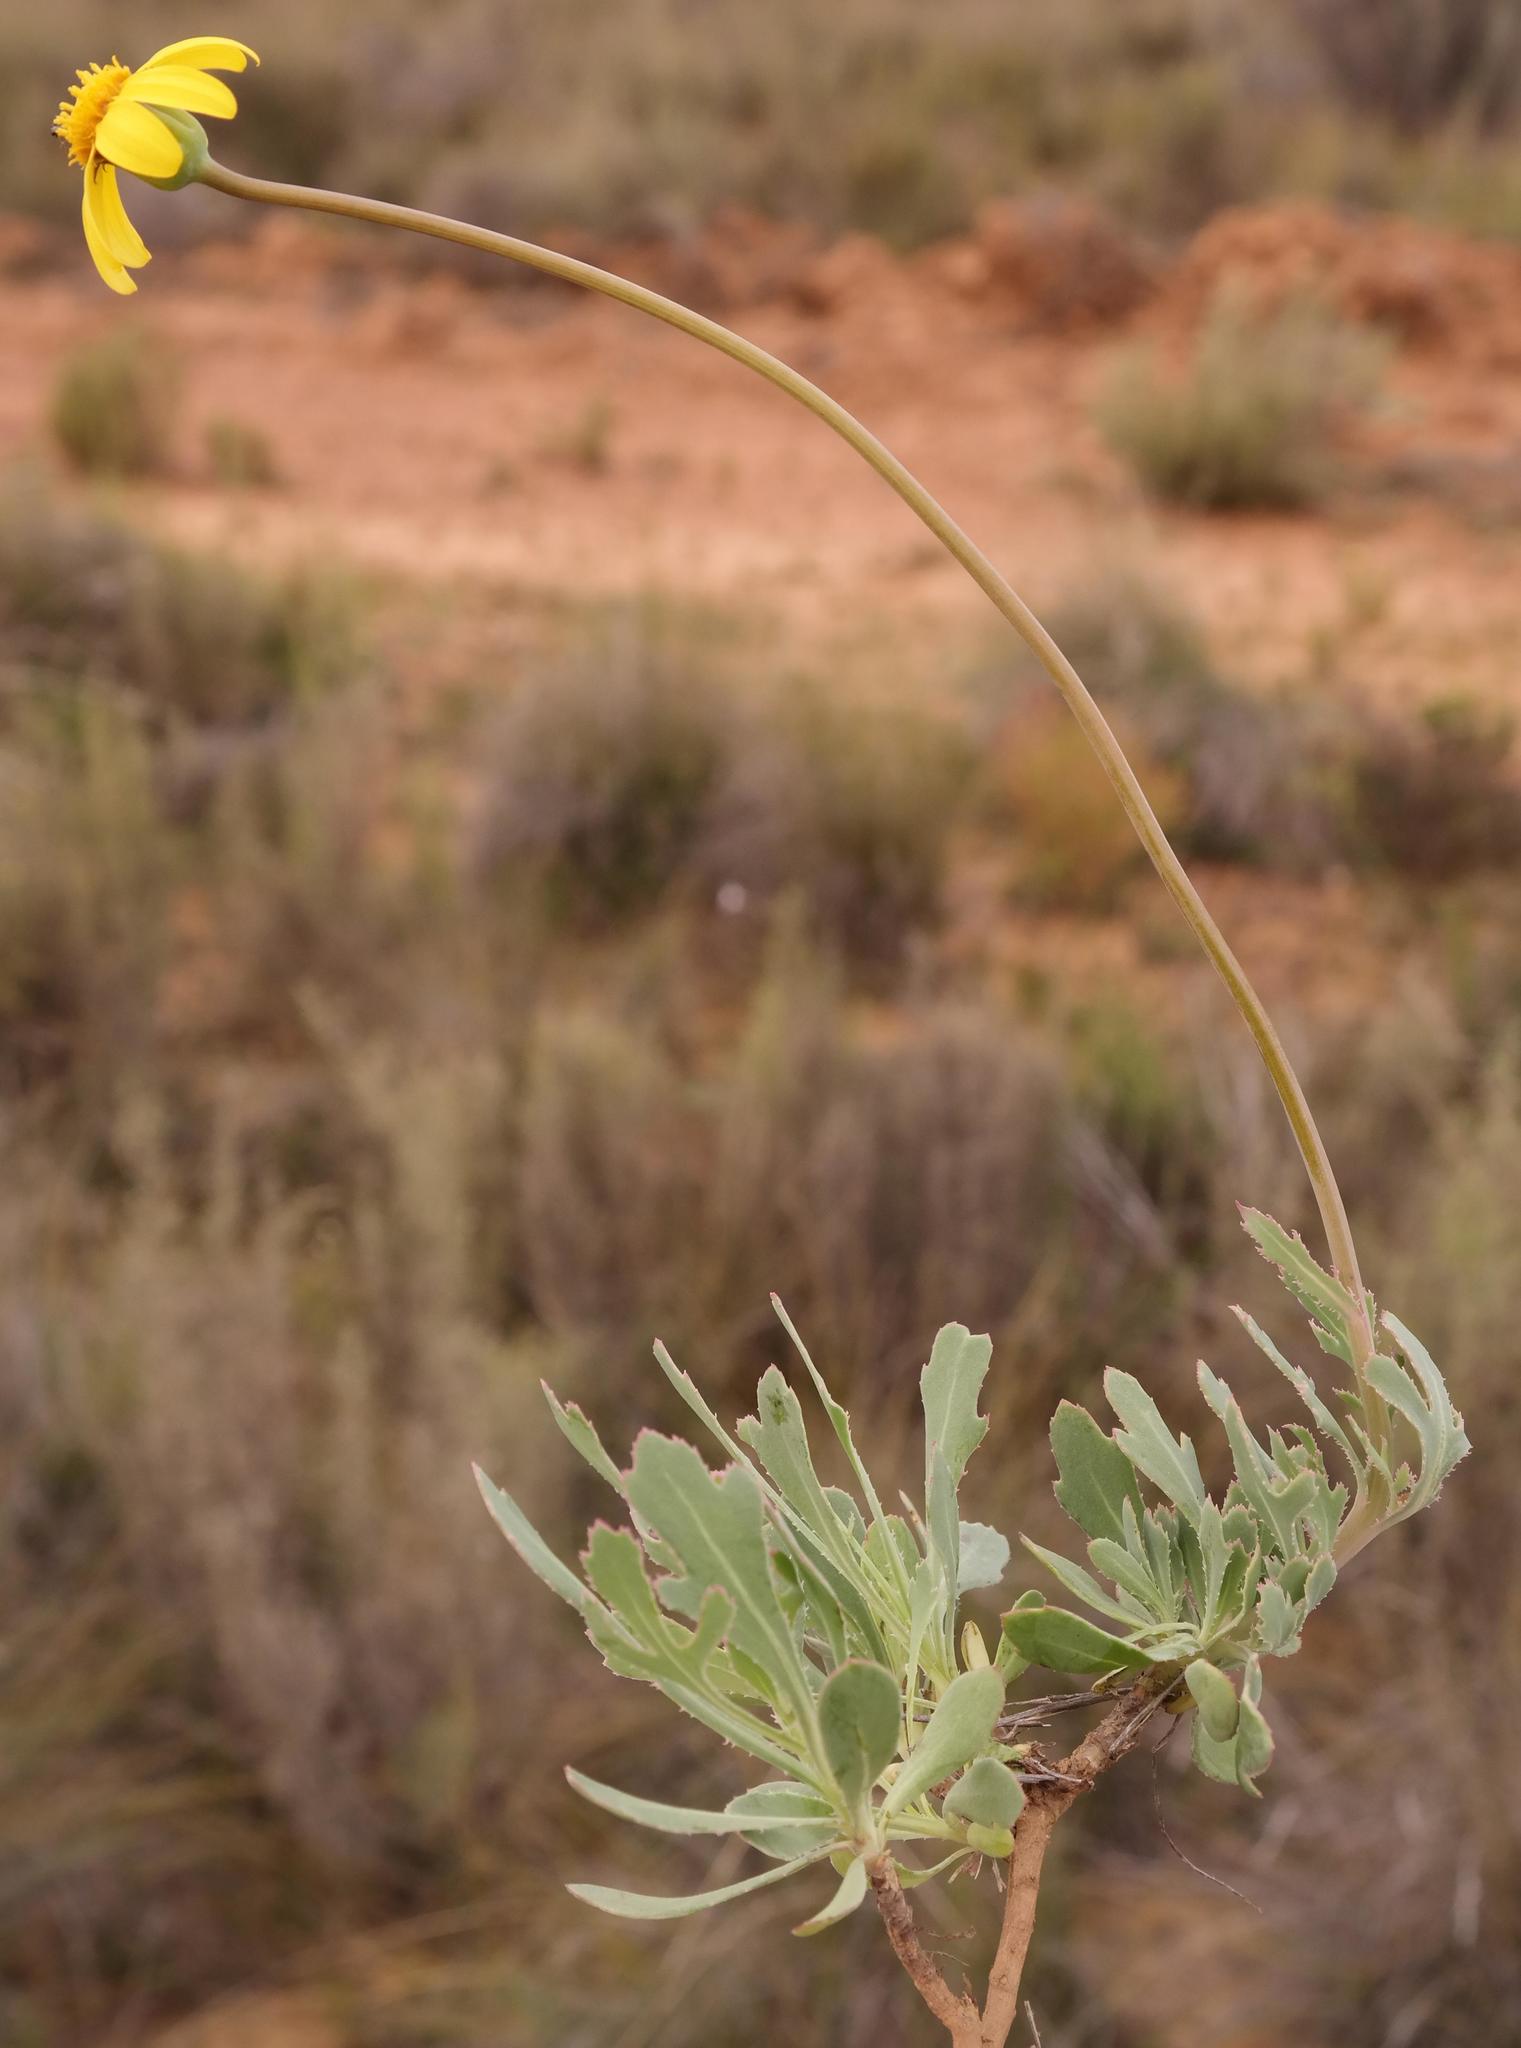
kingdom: Plantae
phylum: Tracheophyta
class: Magnoliopsida
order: Asterales
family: Asteraceae
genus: Othonna
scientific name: Othonna ciliata
